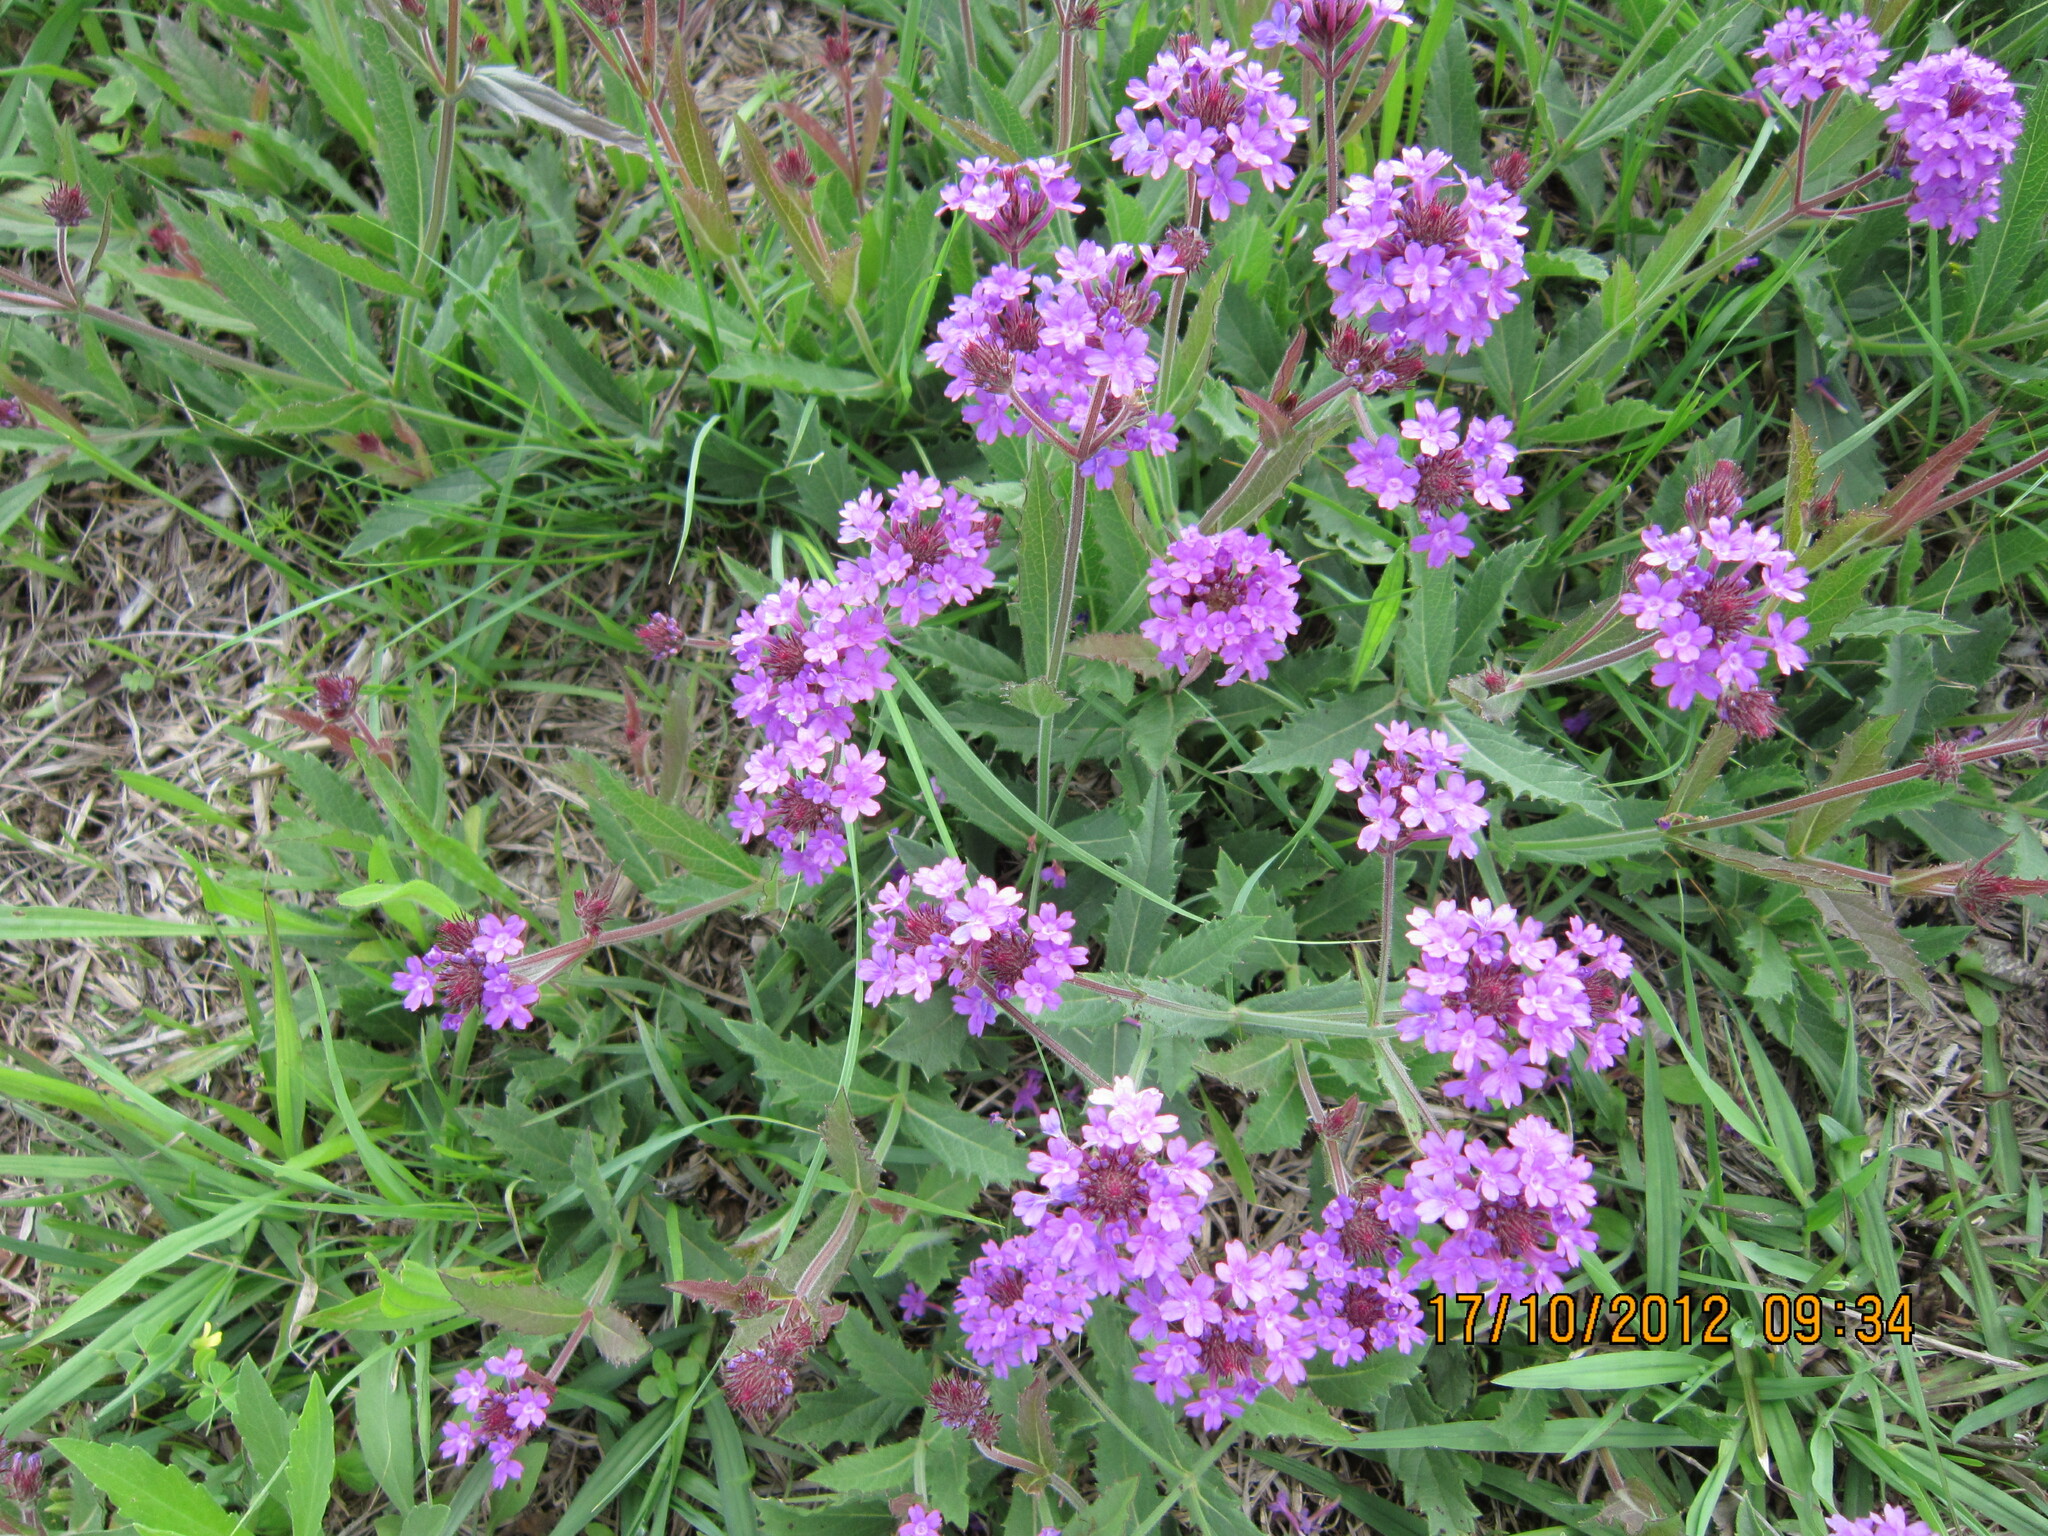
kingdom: Plantae
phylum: Tracheophyta
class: Magnoliopsida
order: Lamiales
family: Verbenaceae
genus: Verbena
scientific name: Verbena aristigera
